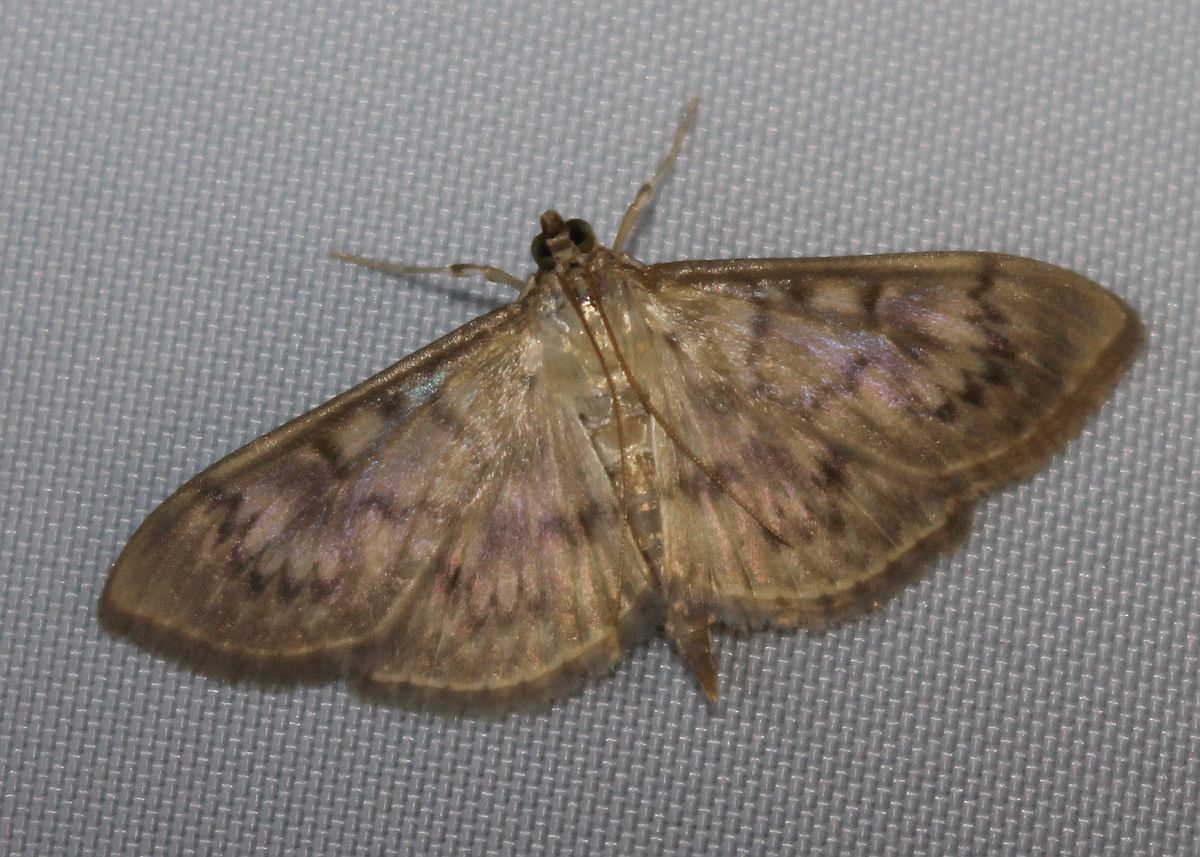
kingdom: Animalia
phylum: Arthropoda
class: Insecta
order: Lepidoptera
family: Crambidae
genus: Patania
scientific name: Patania ruralis
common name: Mother of pearl
